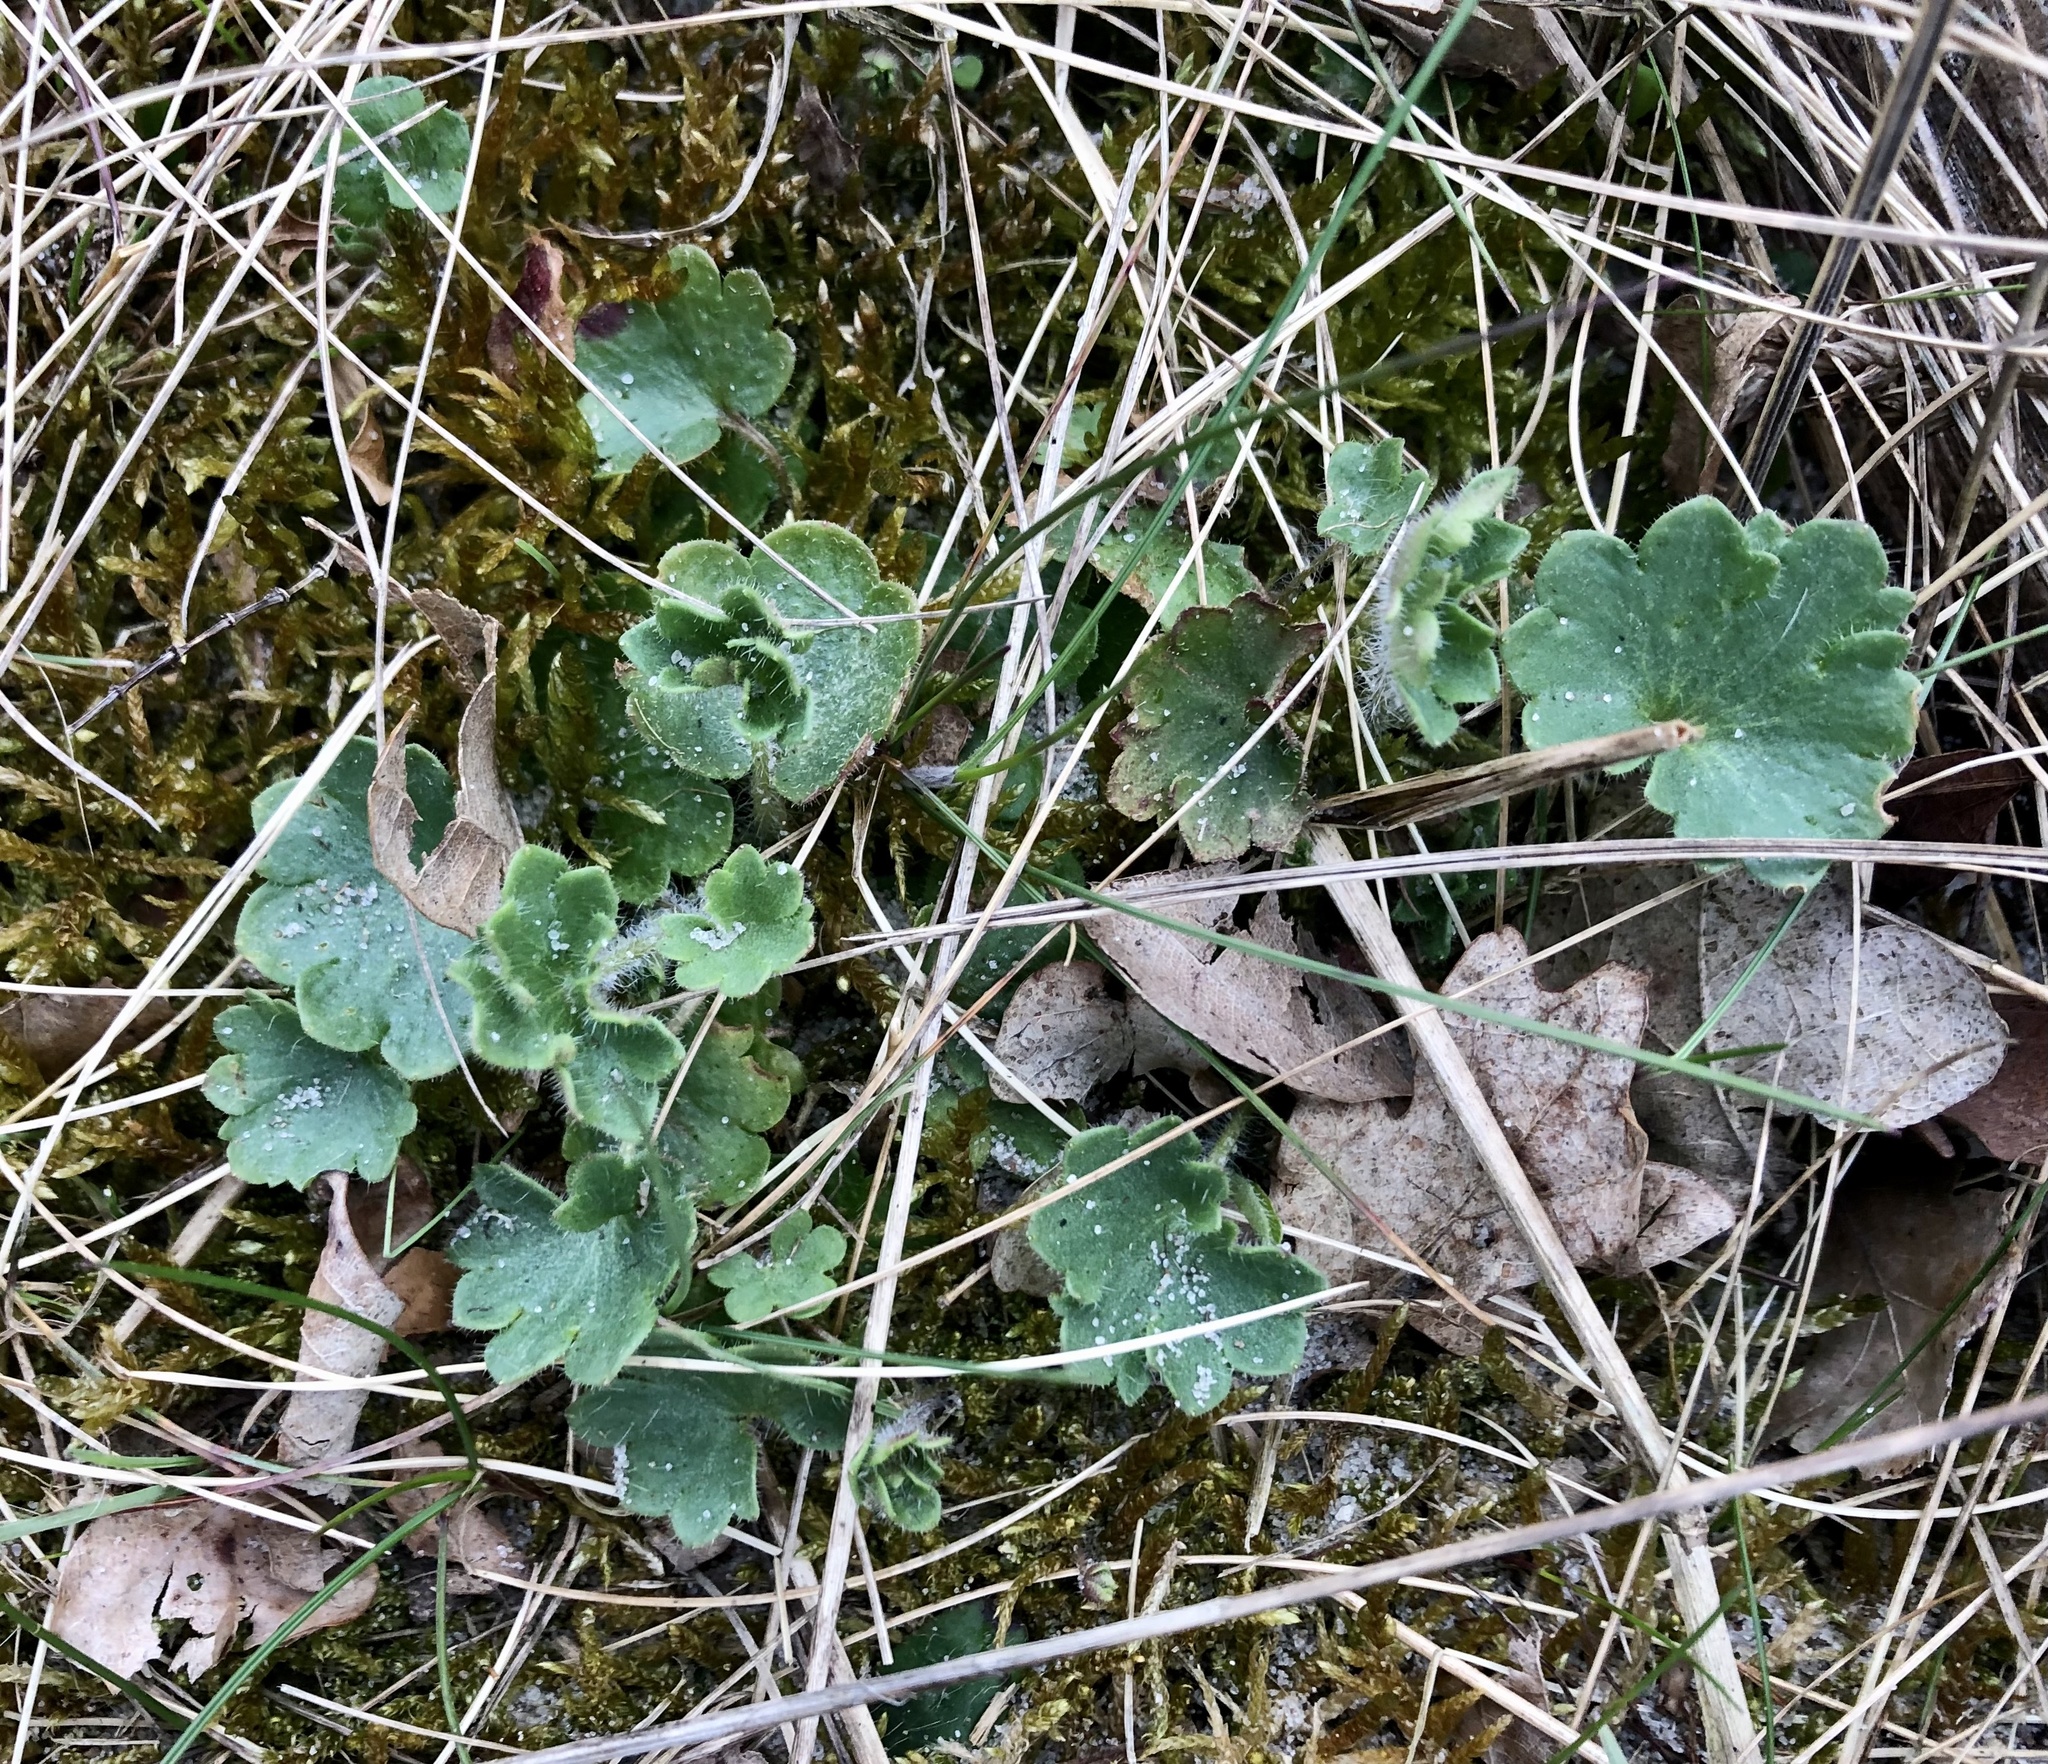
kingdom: Plantae
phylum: Tracheophyta
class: Magnoliopsida
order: Saxifragales
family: Saxifragaceae
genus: Saxifraga
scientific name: Saxifraga granulata
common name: Meadow saxifrage
